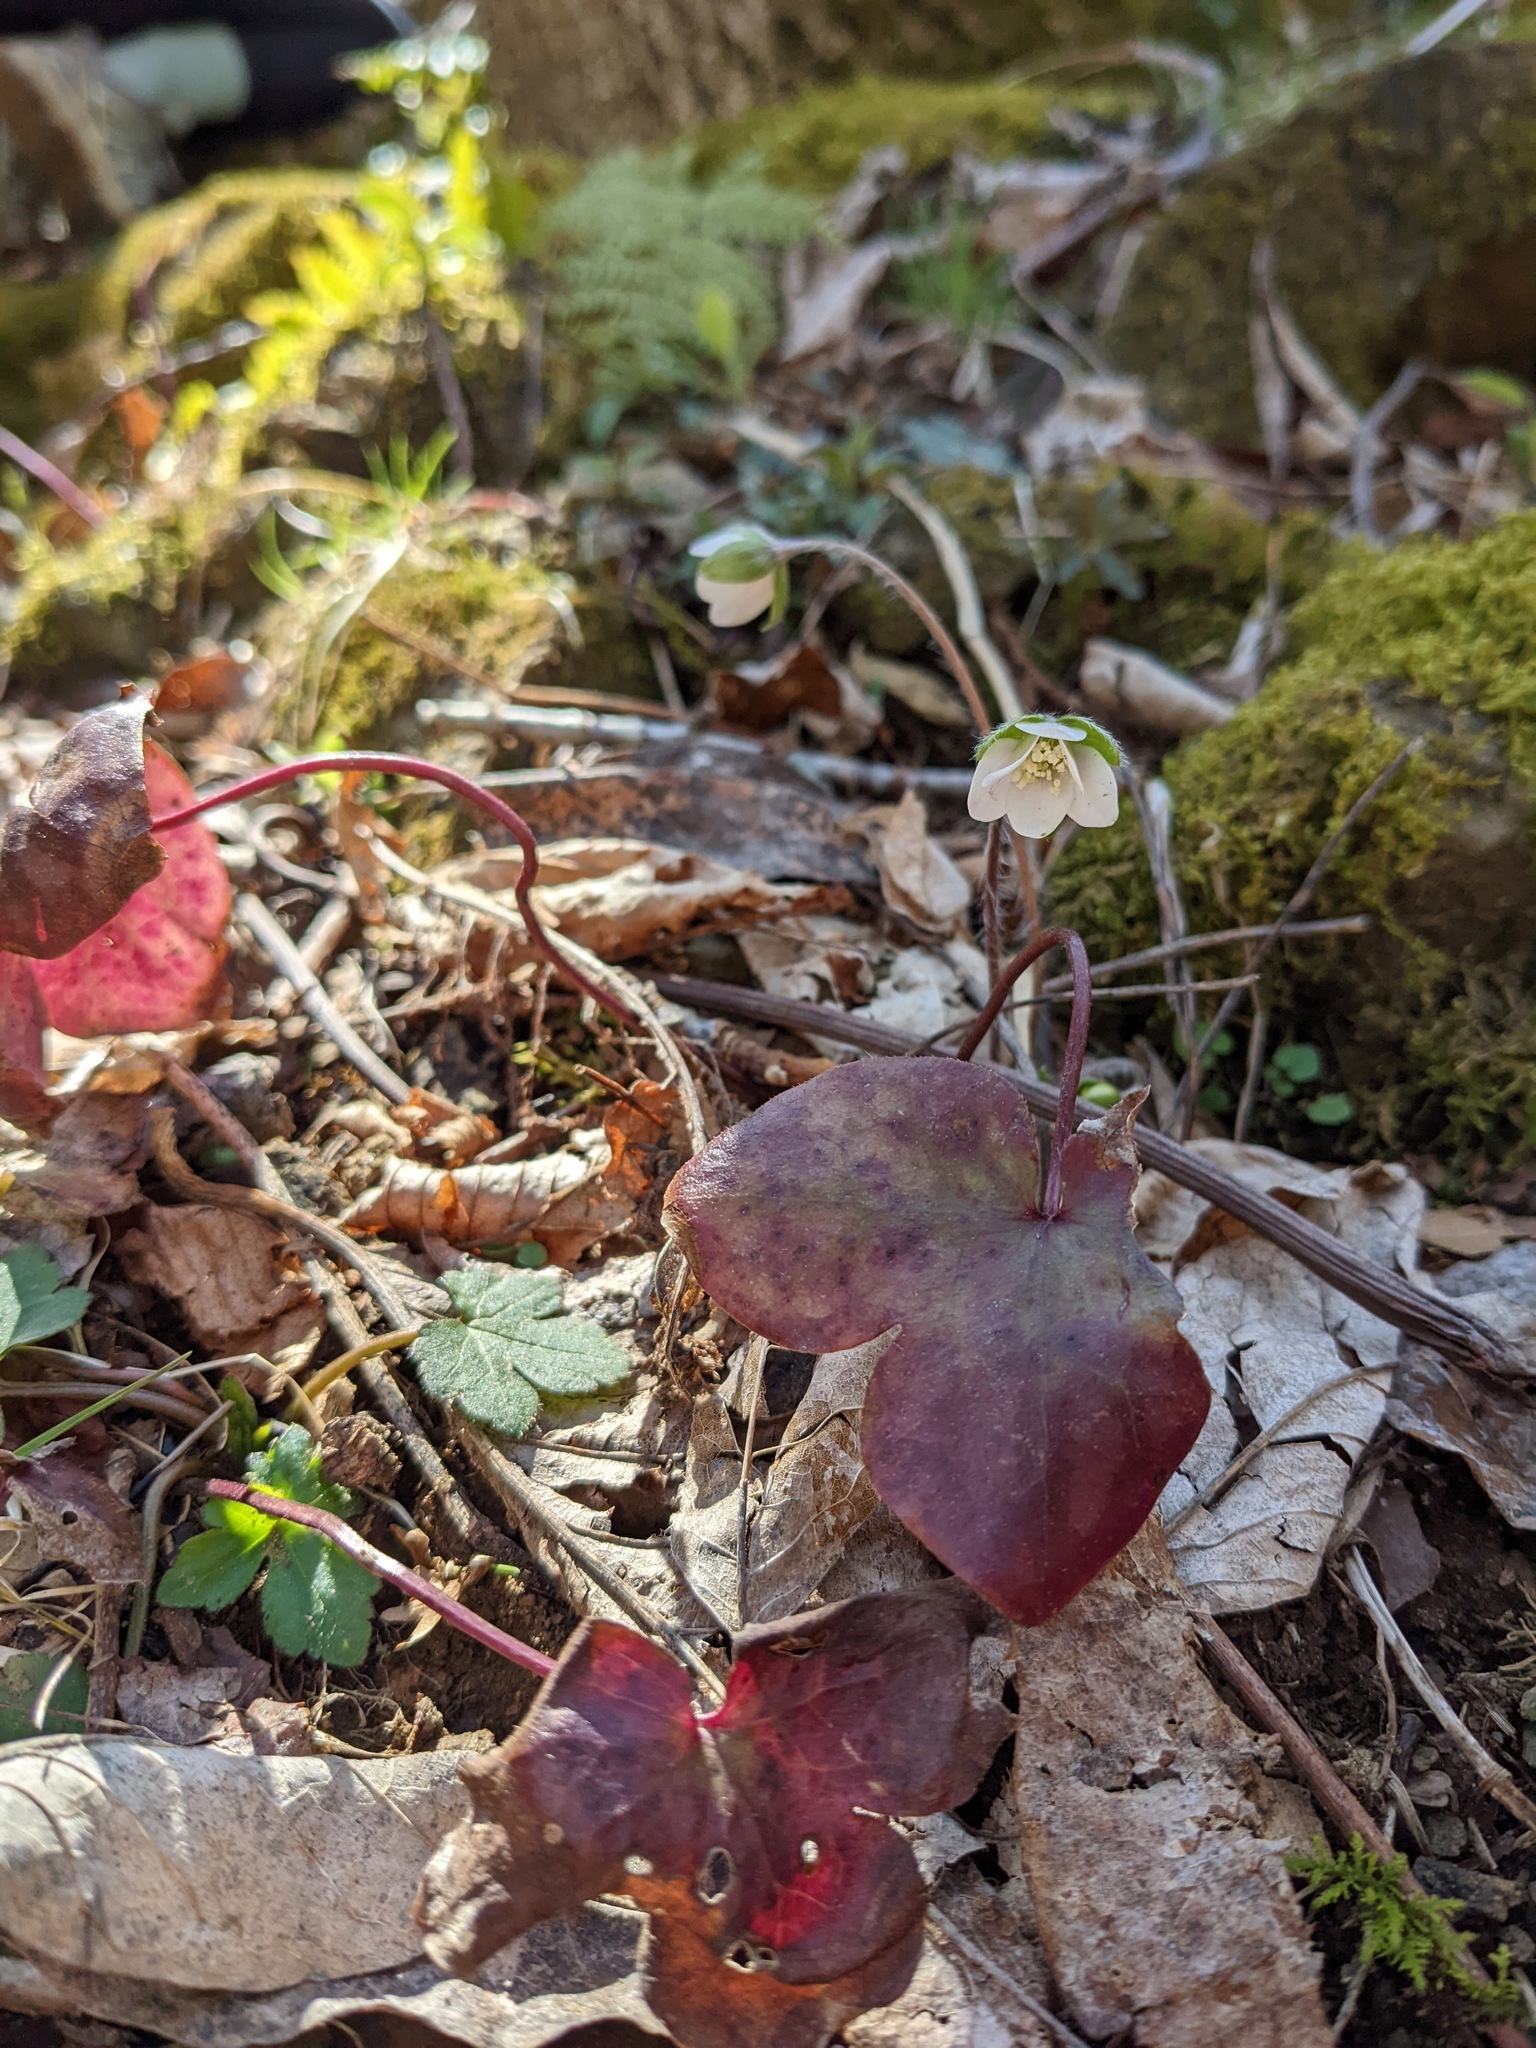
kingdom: Plantae
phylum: Tracheophyta
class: Magnoliopsida
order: Ranunculales
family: Ranunculaceae
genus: Hepatica
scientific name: Hepatica acutiloba
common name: Sharp-lobed hepatica
